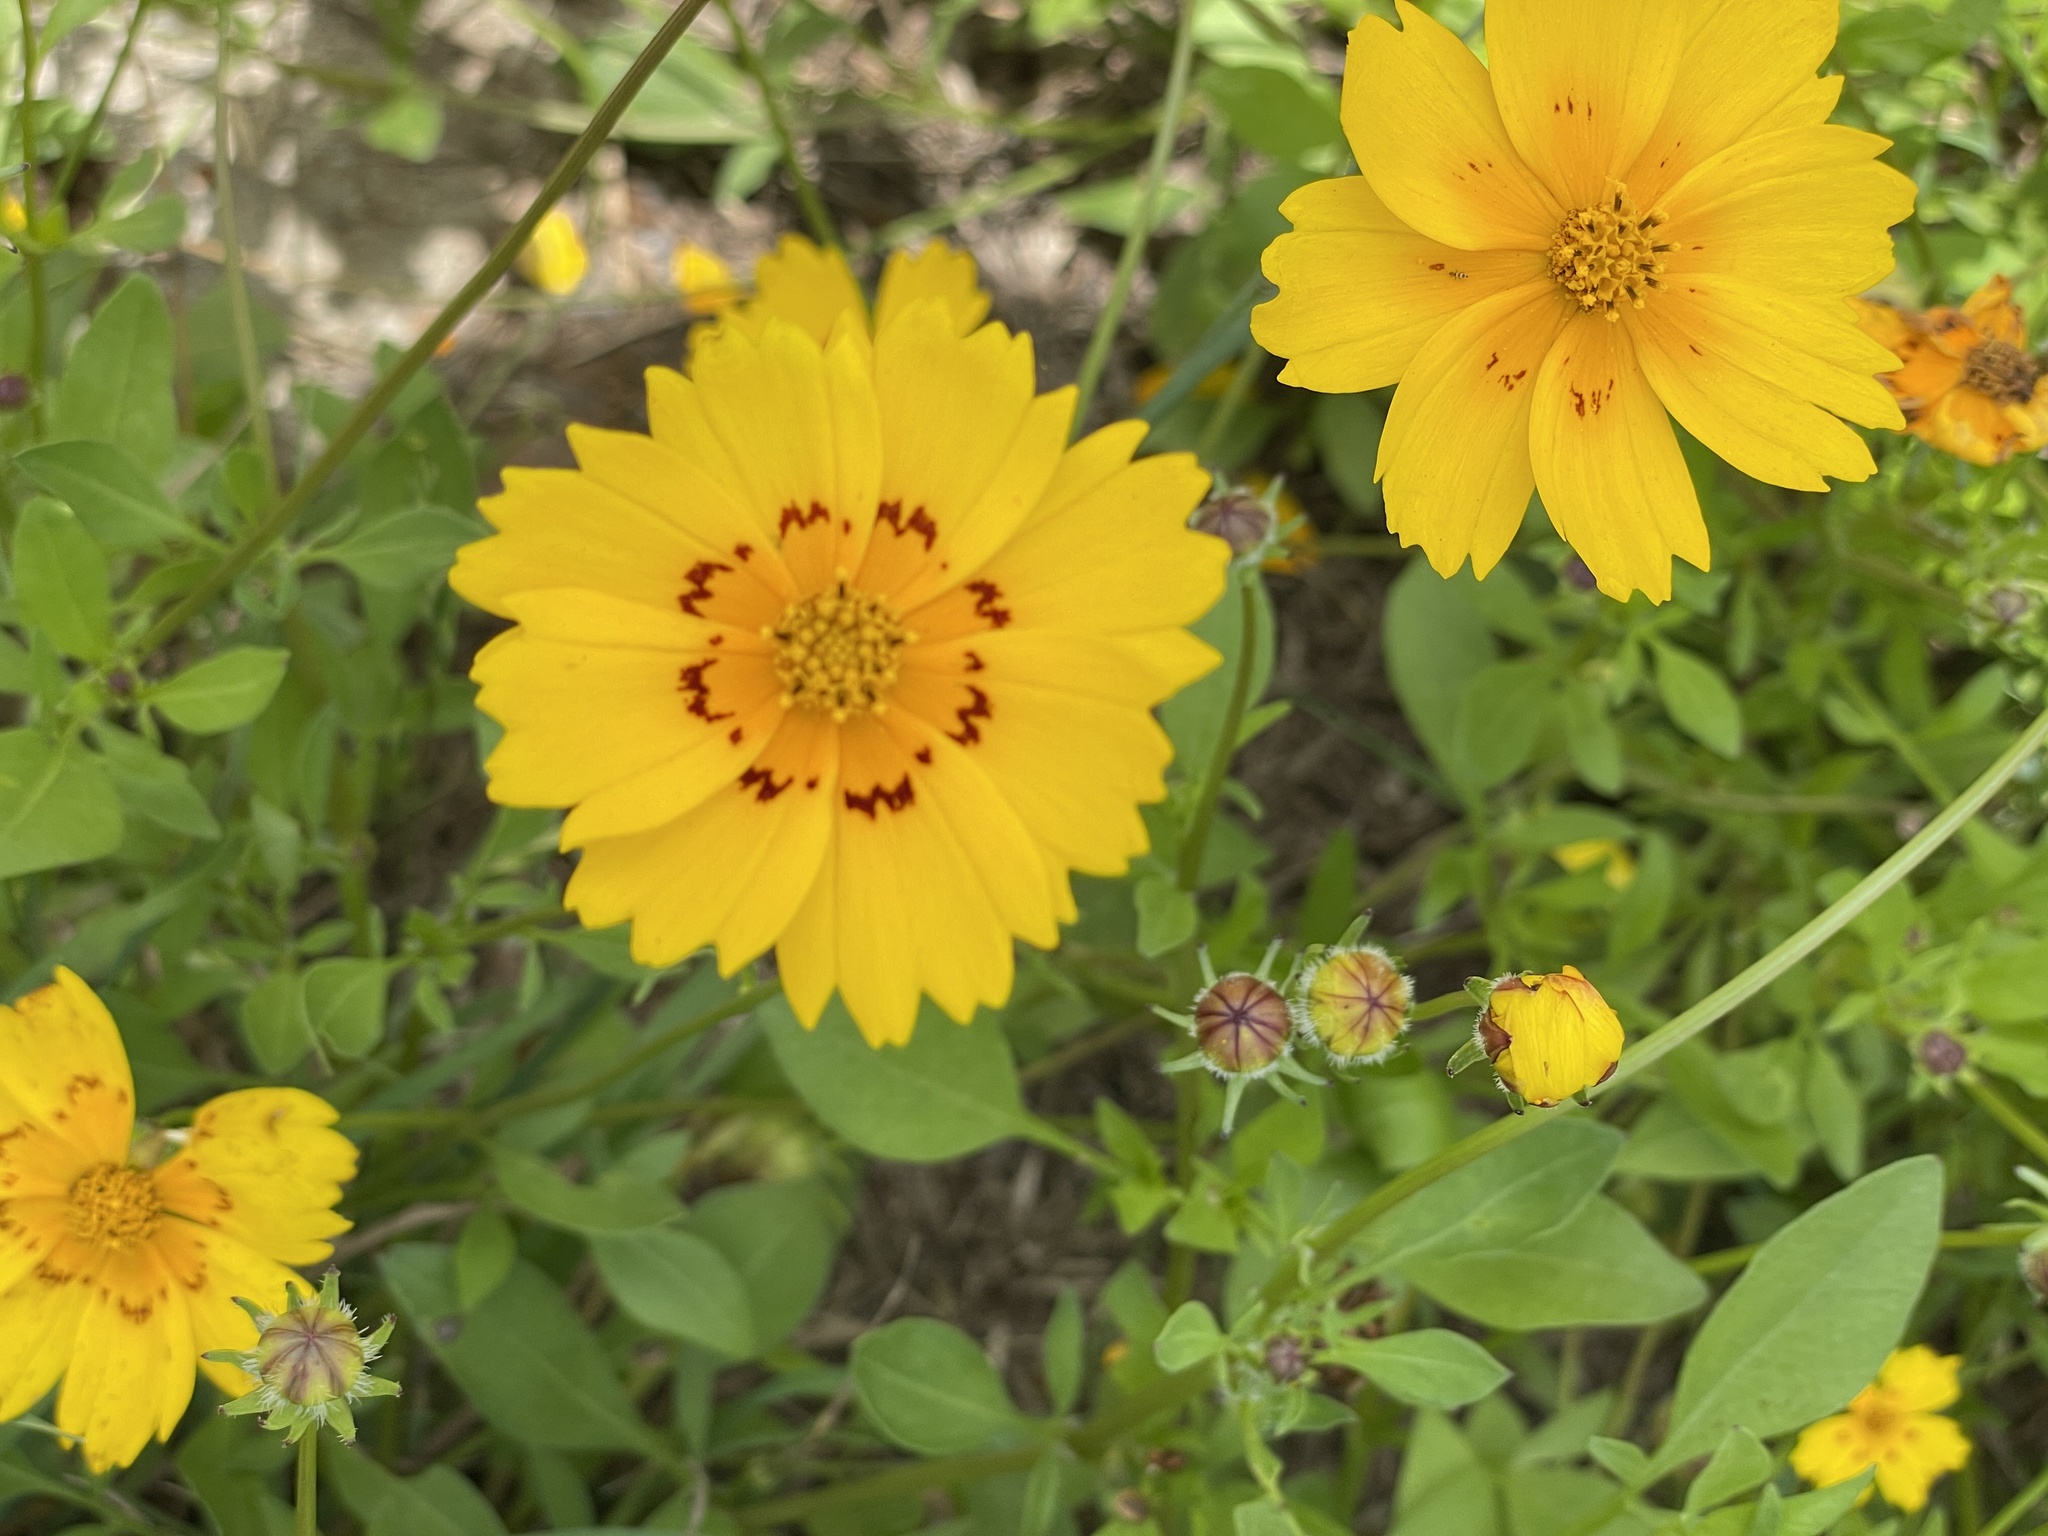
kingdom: Plantae
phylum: Tracheophyta
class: Magnoliopsida
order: Asterales
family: Asteraceae
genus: Coreopsis
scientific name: Coreopsis nuecensis
